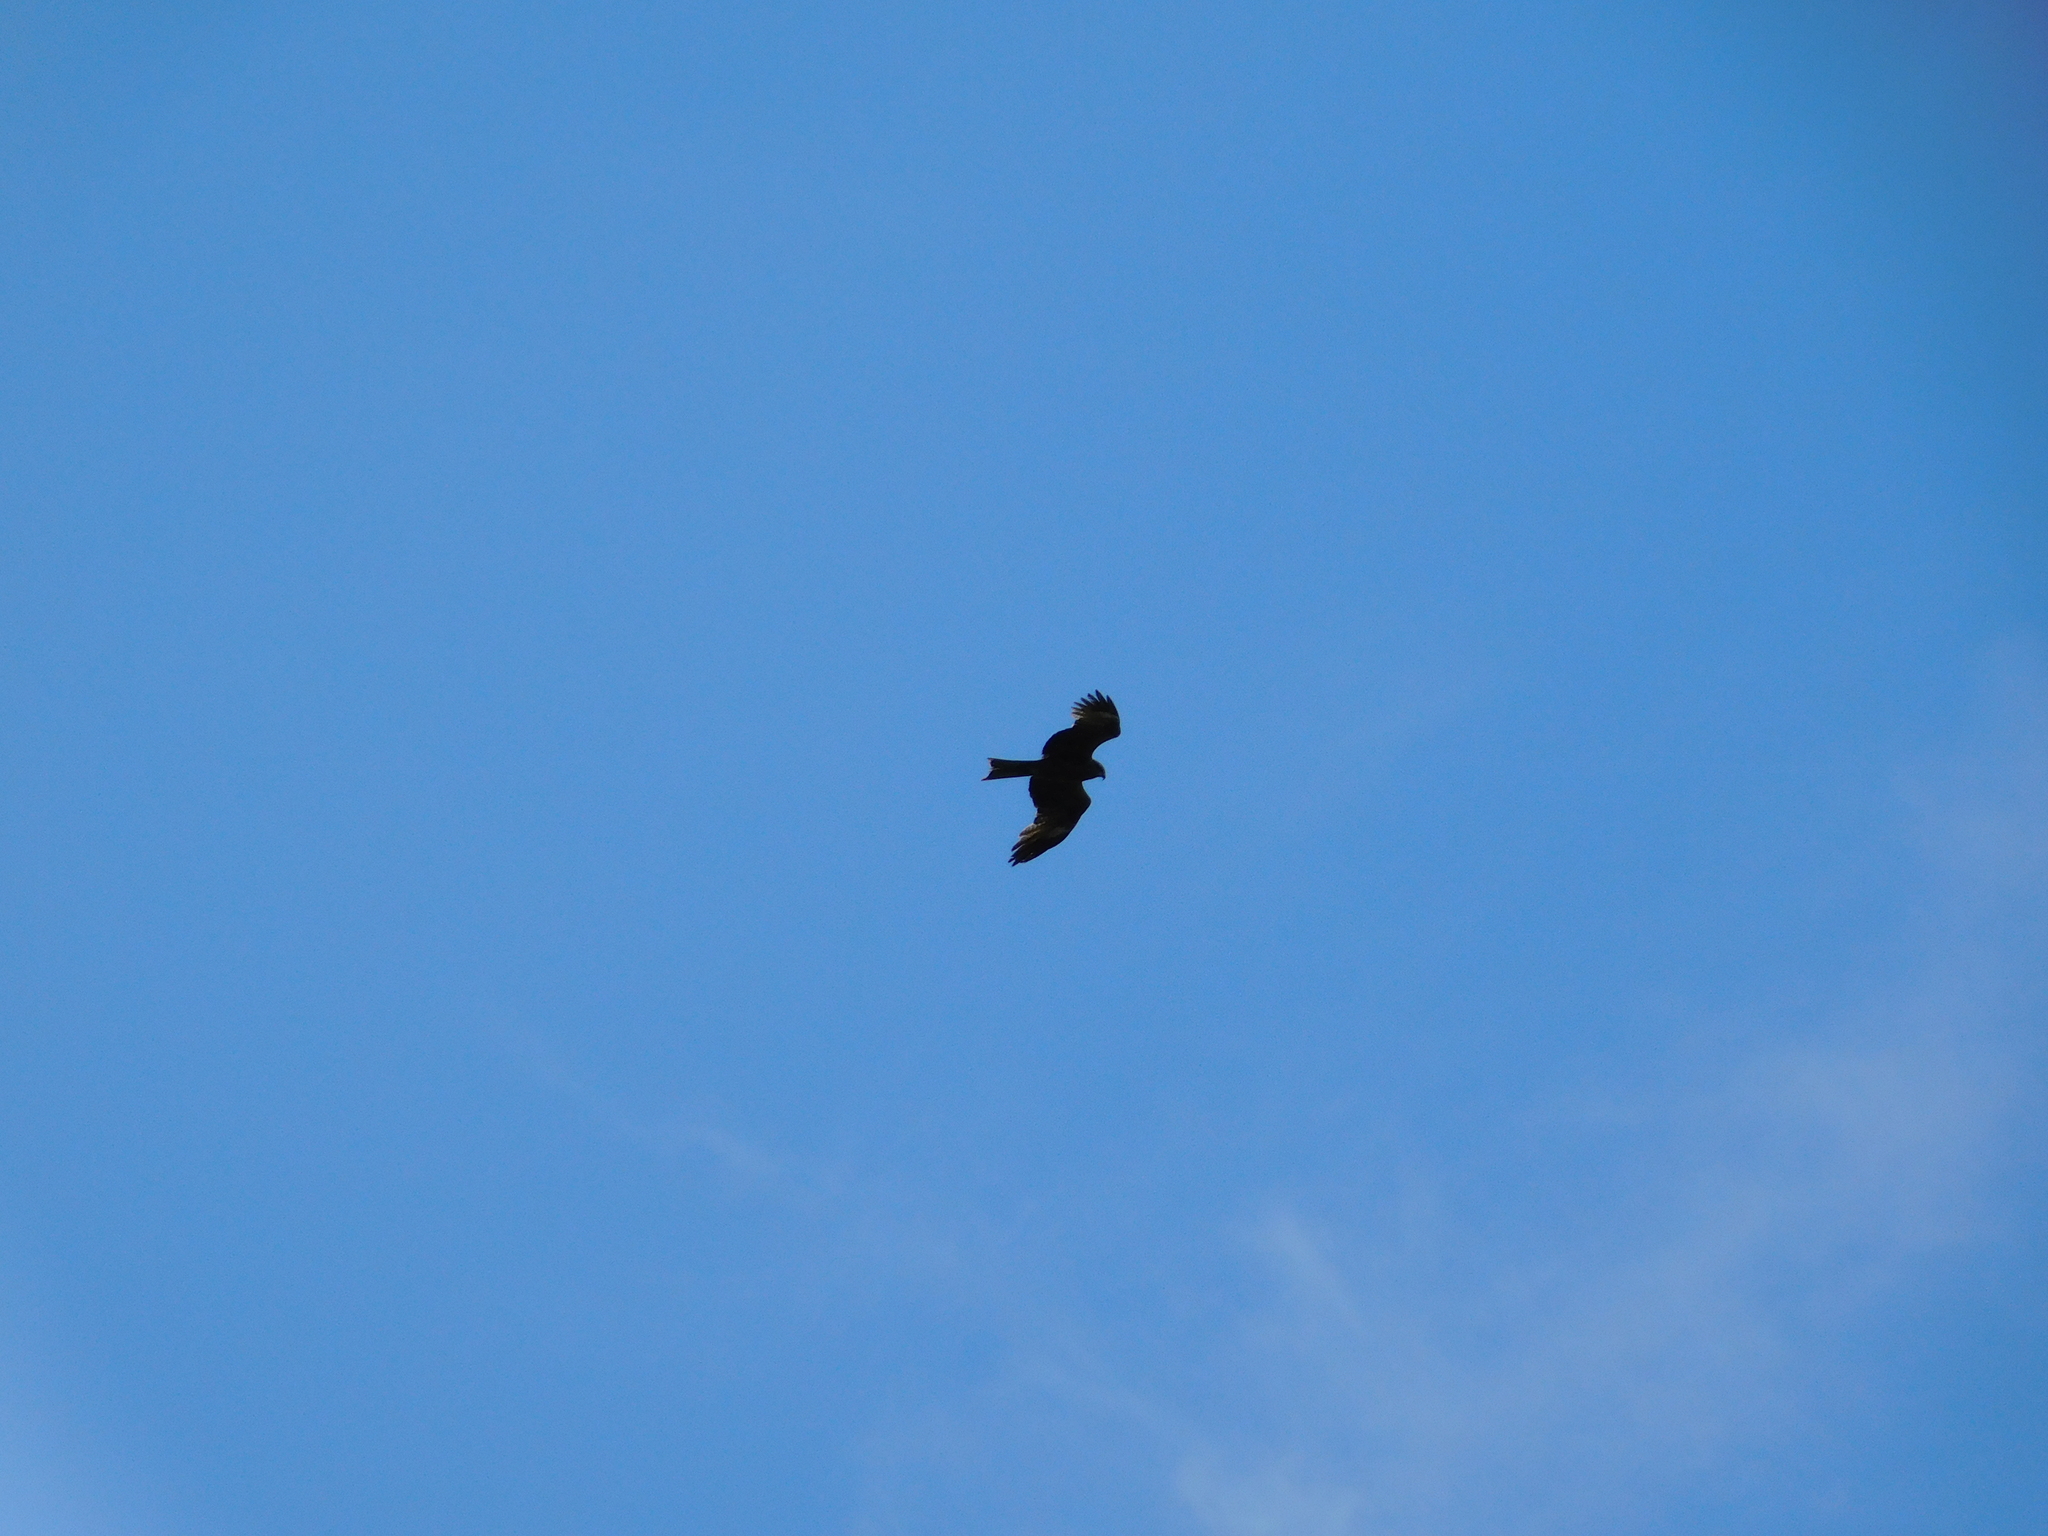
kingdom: Animalia
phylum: Chordata
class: Aves
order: Accipitriformes
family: Accipitridae
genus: Milvus
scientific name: Milvus migrans
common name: Black kite
